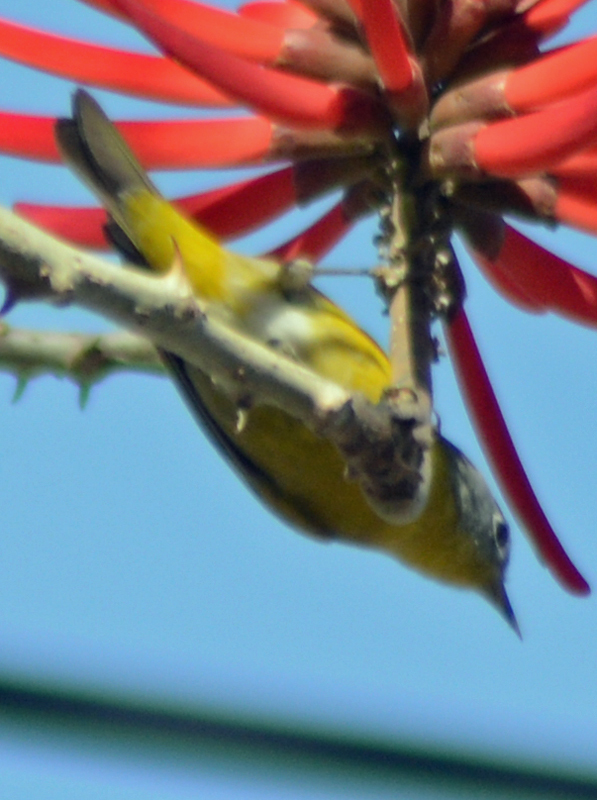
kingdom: Animalia
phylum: Chordata
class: Aves
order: Passeriformes
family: Parulidae
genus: Leiothlypis
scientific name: Leiothlypis ruficapilla
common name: Nashville warbler
